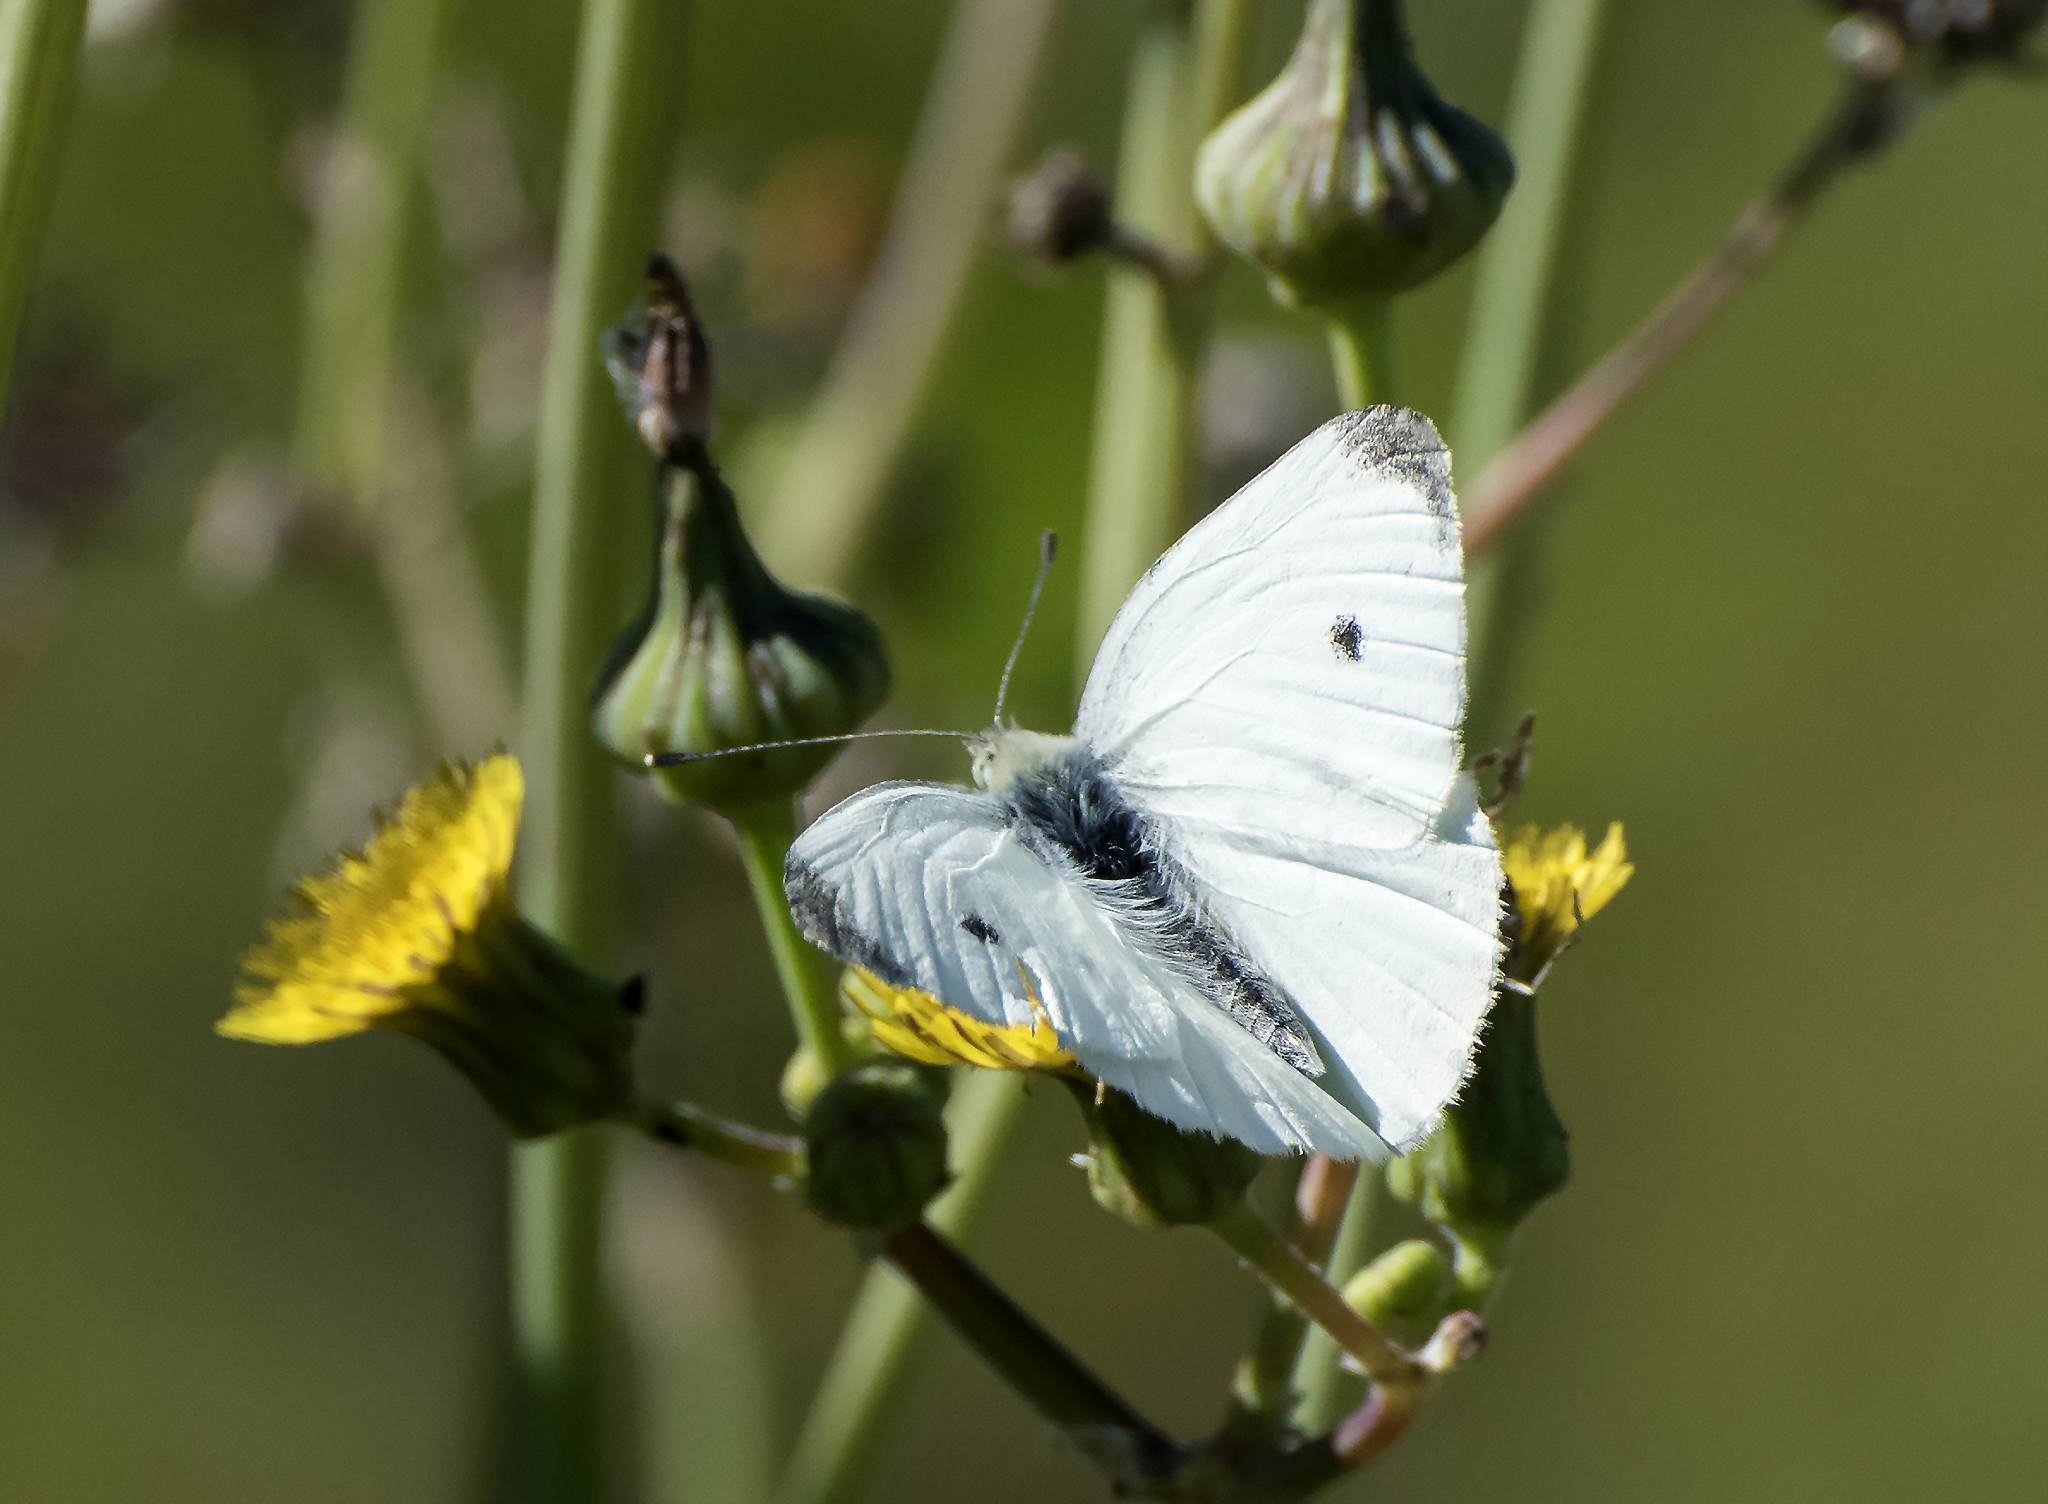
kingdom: Animalia
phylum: Arthropoda
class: Insecta
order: Lepidoptera
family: Pieridae
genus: Pieris
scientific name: Pieris rapae
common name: Small white
